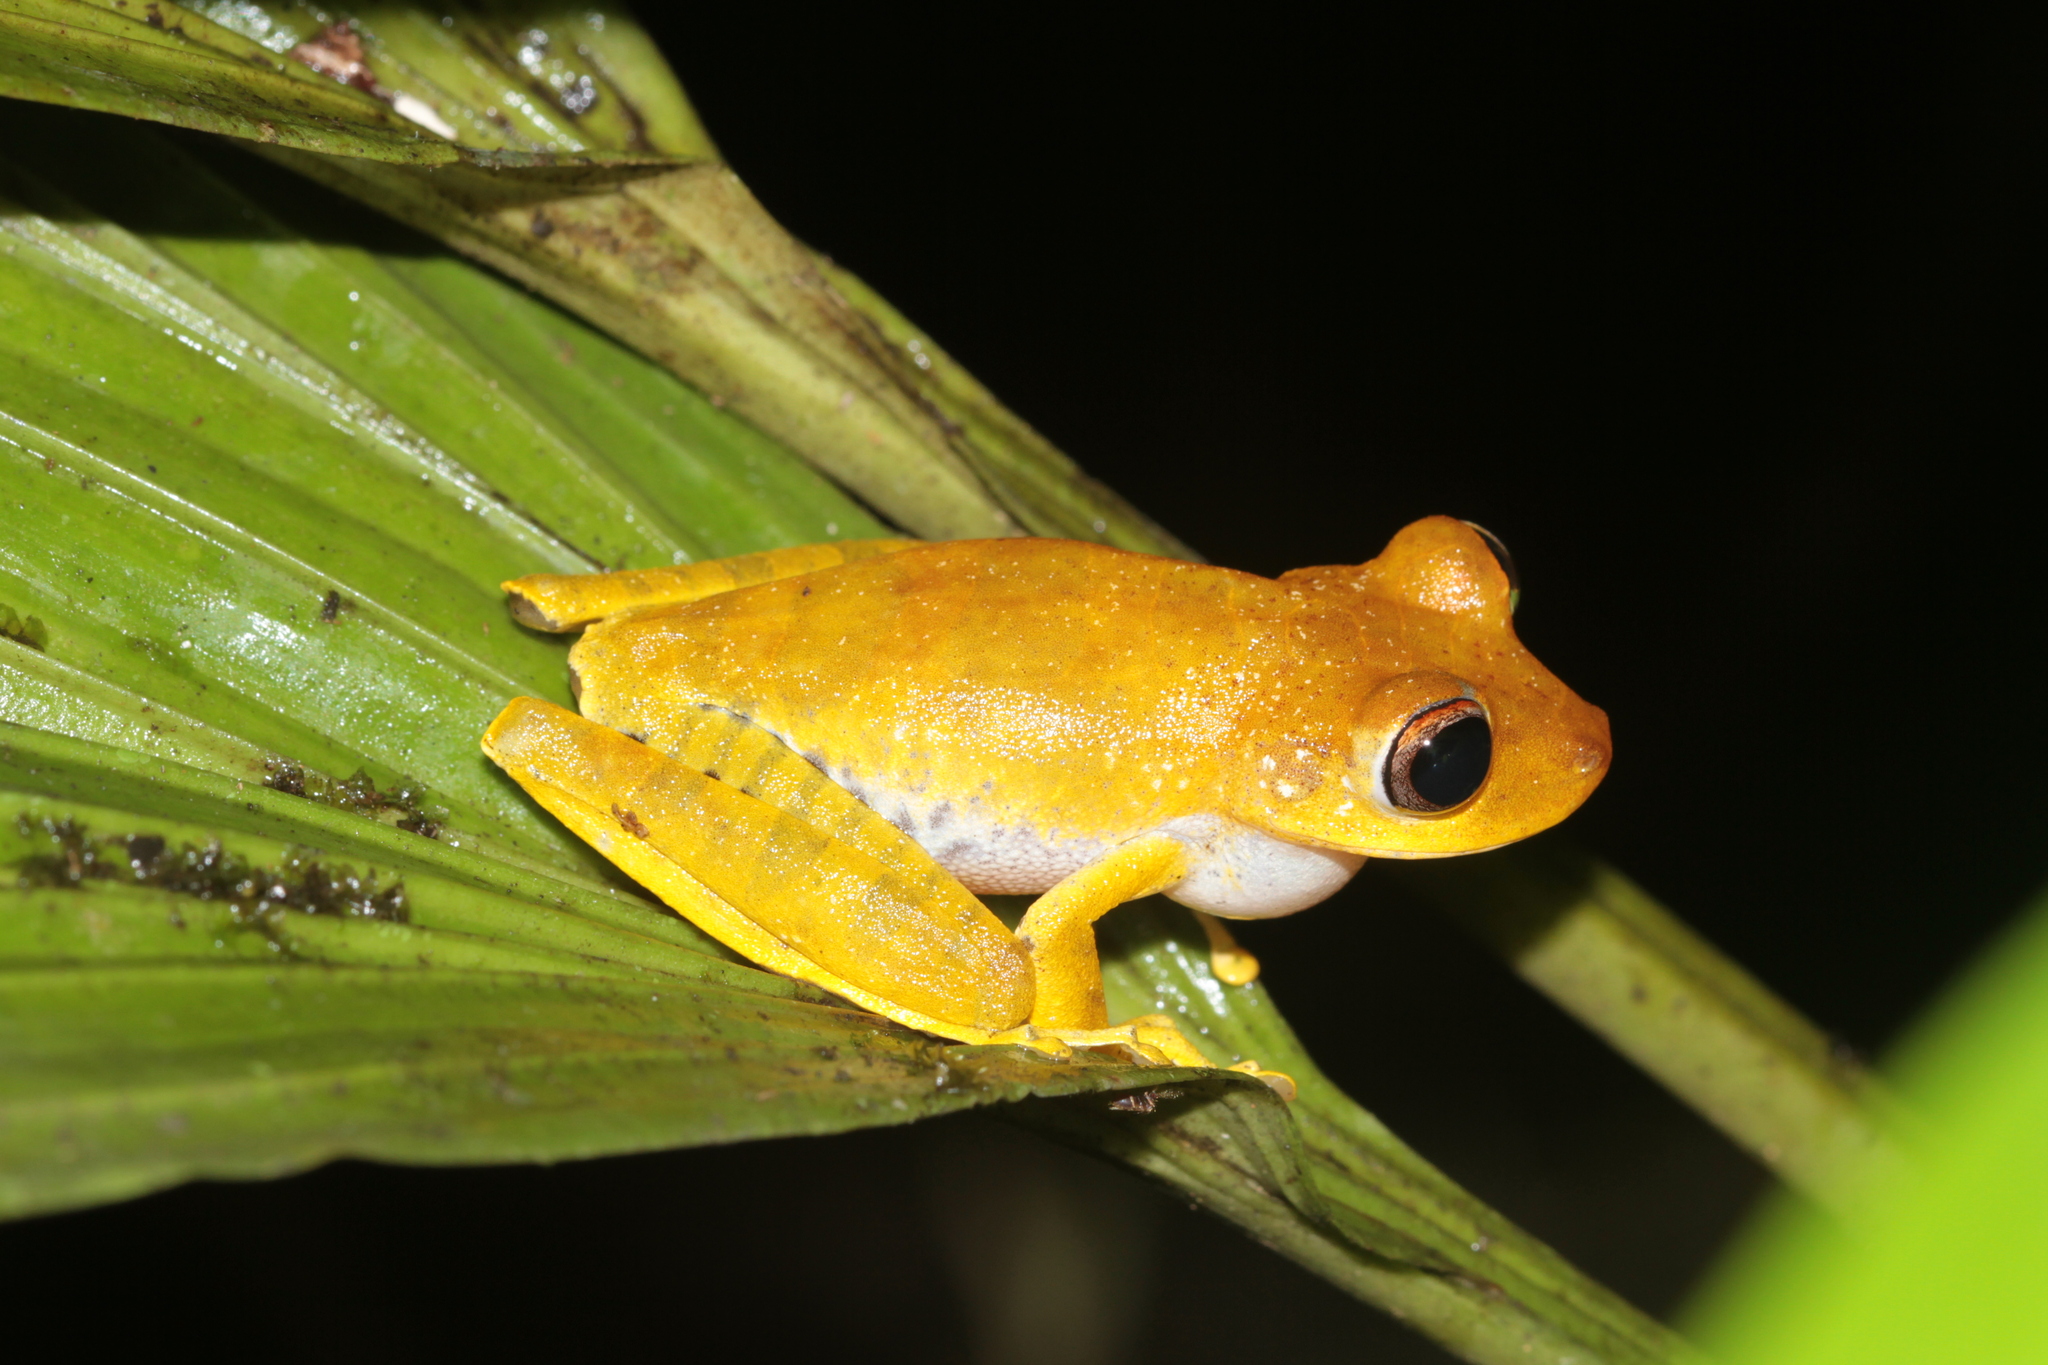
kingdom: Animalia
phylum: Chordata
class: Amphibia
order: Anura
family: Hylidae
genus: Boana
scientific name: Boana dentei
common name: Amapa treefrog
